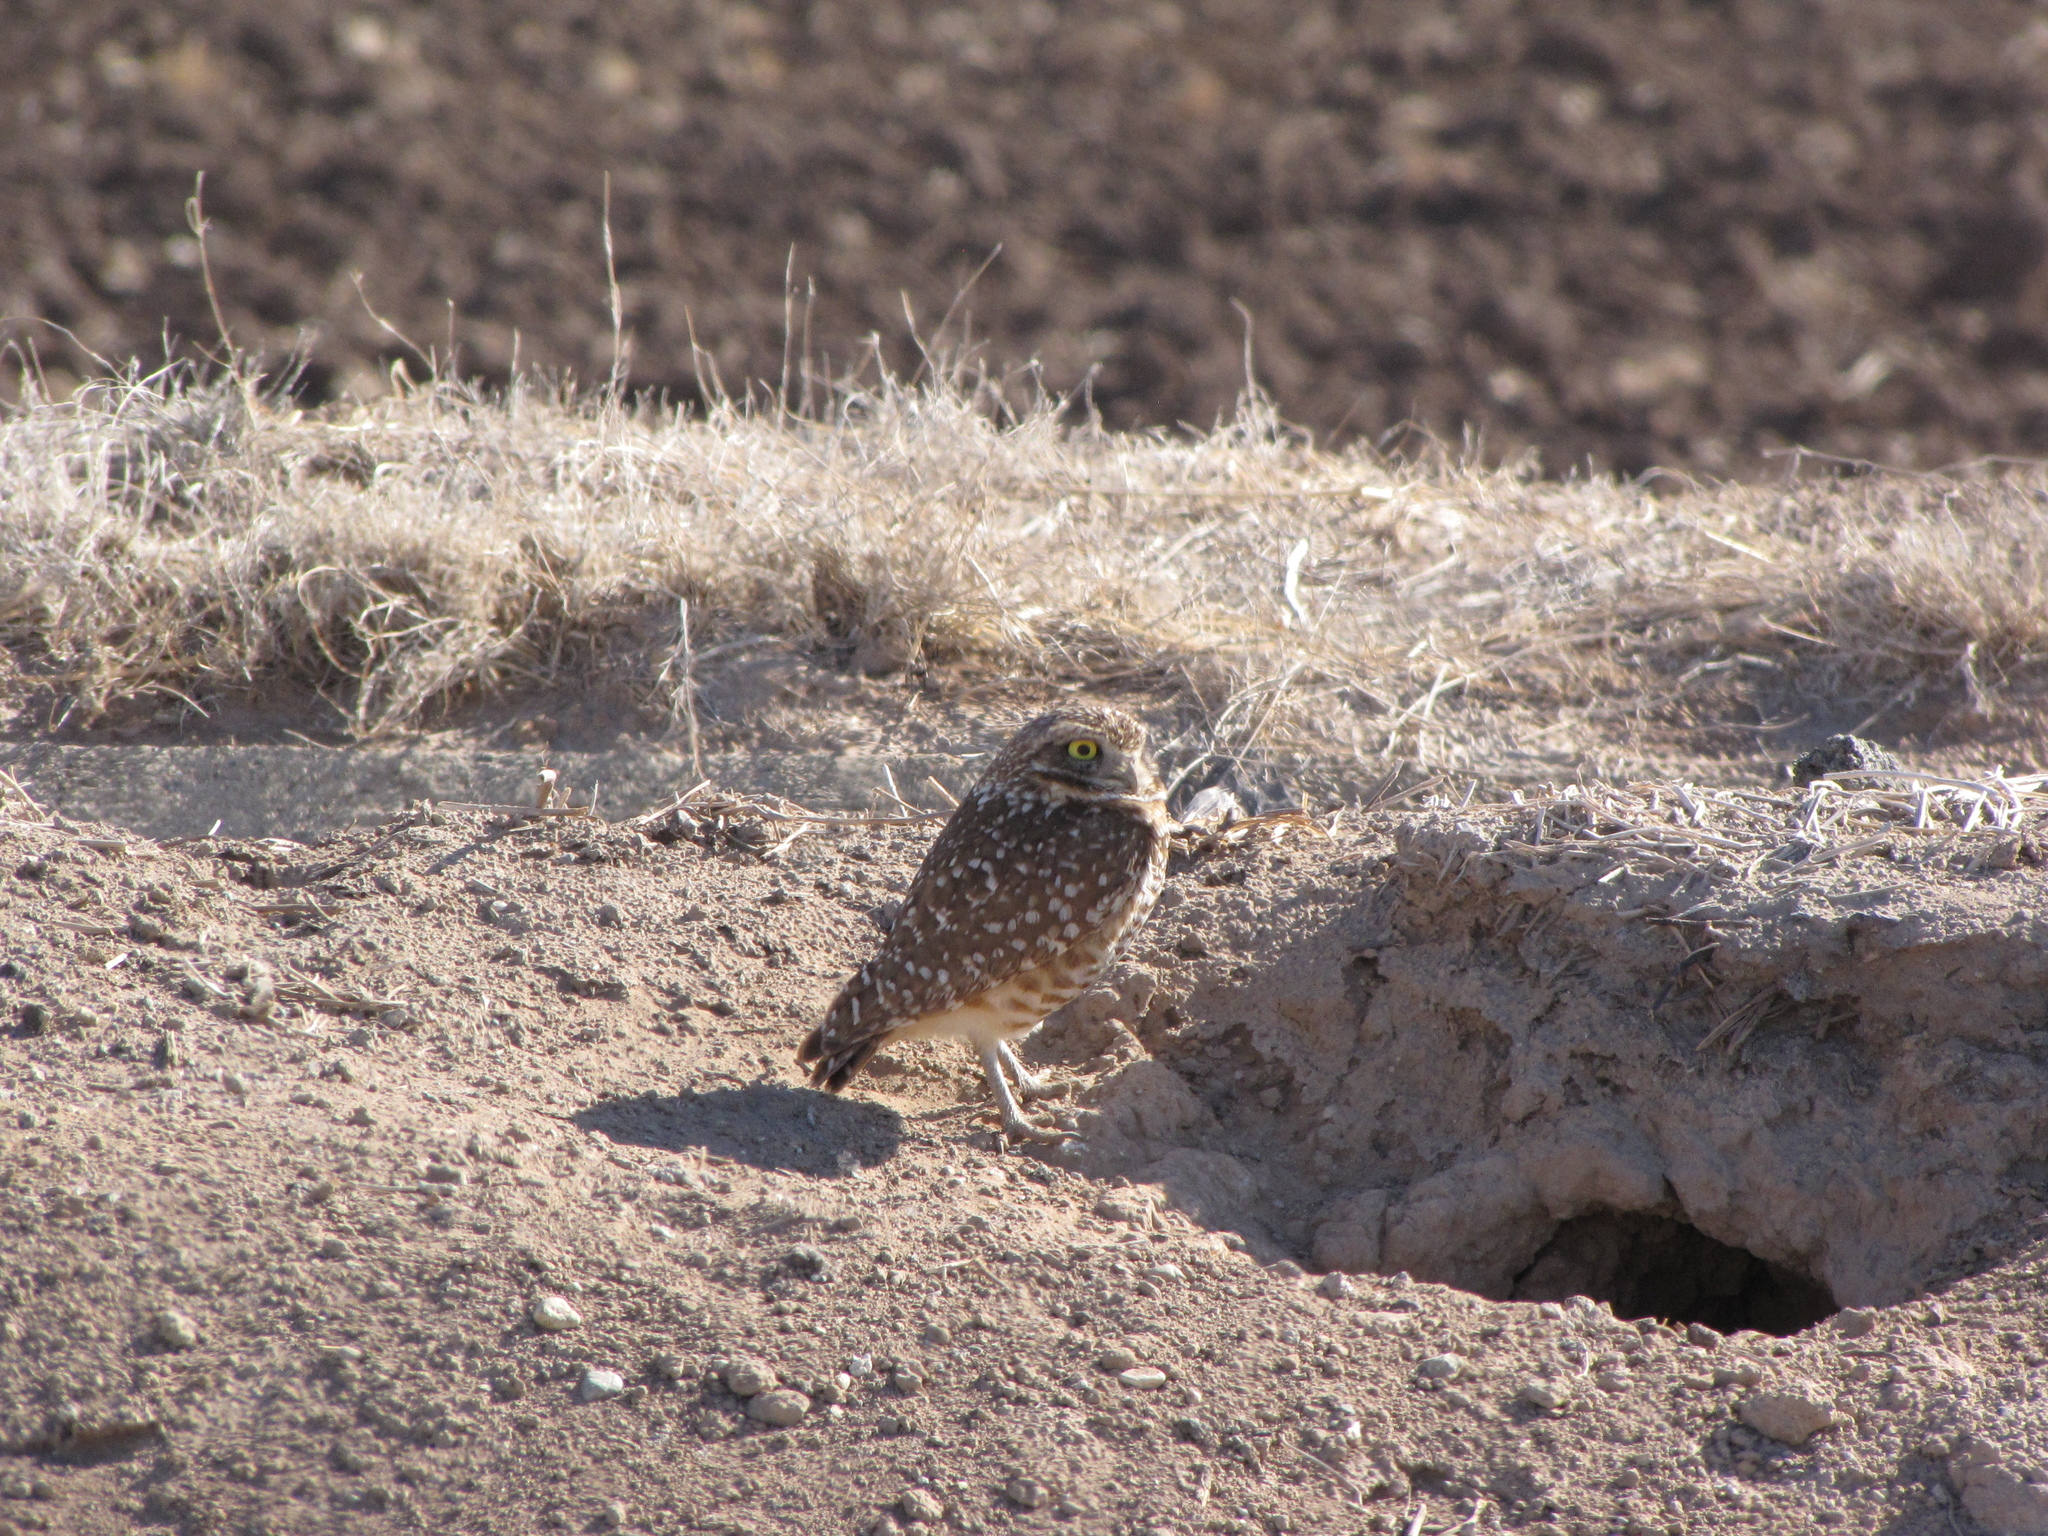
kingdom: Animalia
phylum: Chordata
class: Aves
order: Strigiformes
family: Strigidae
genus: Athene
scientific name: Athene cunicularia
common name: Burrowing owl
